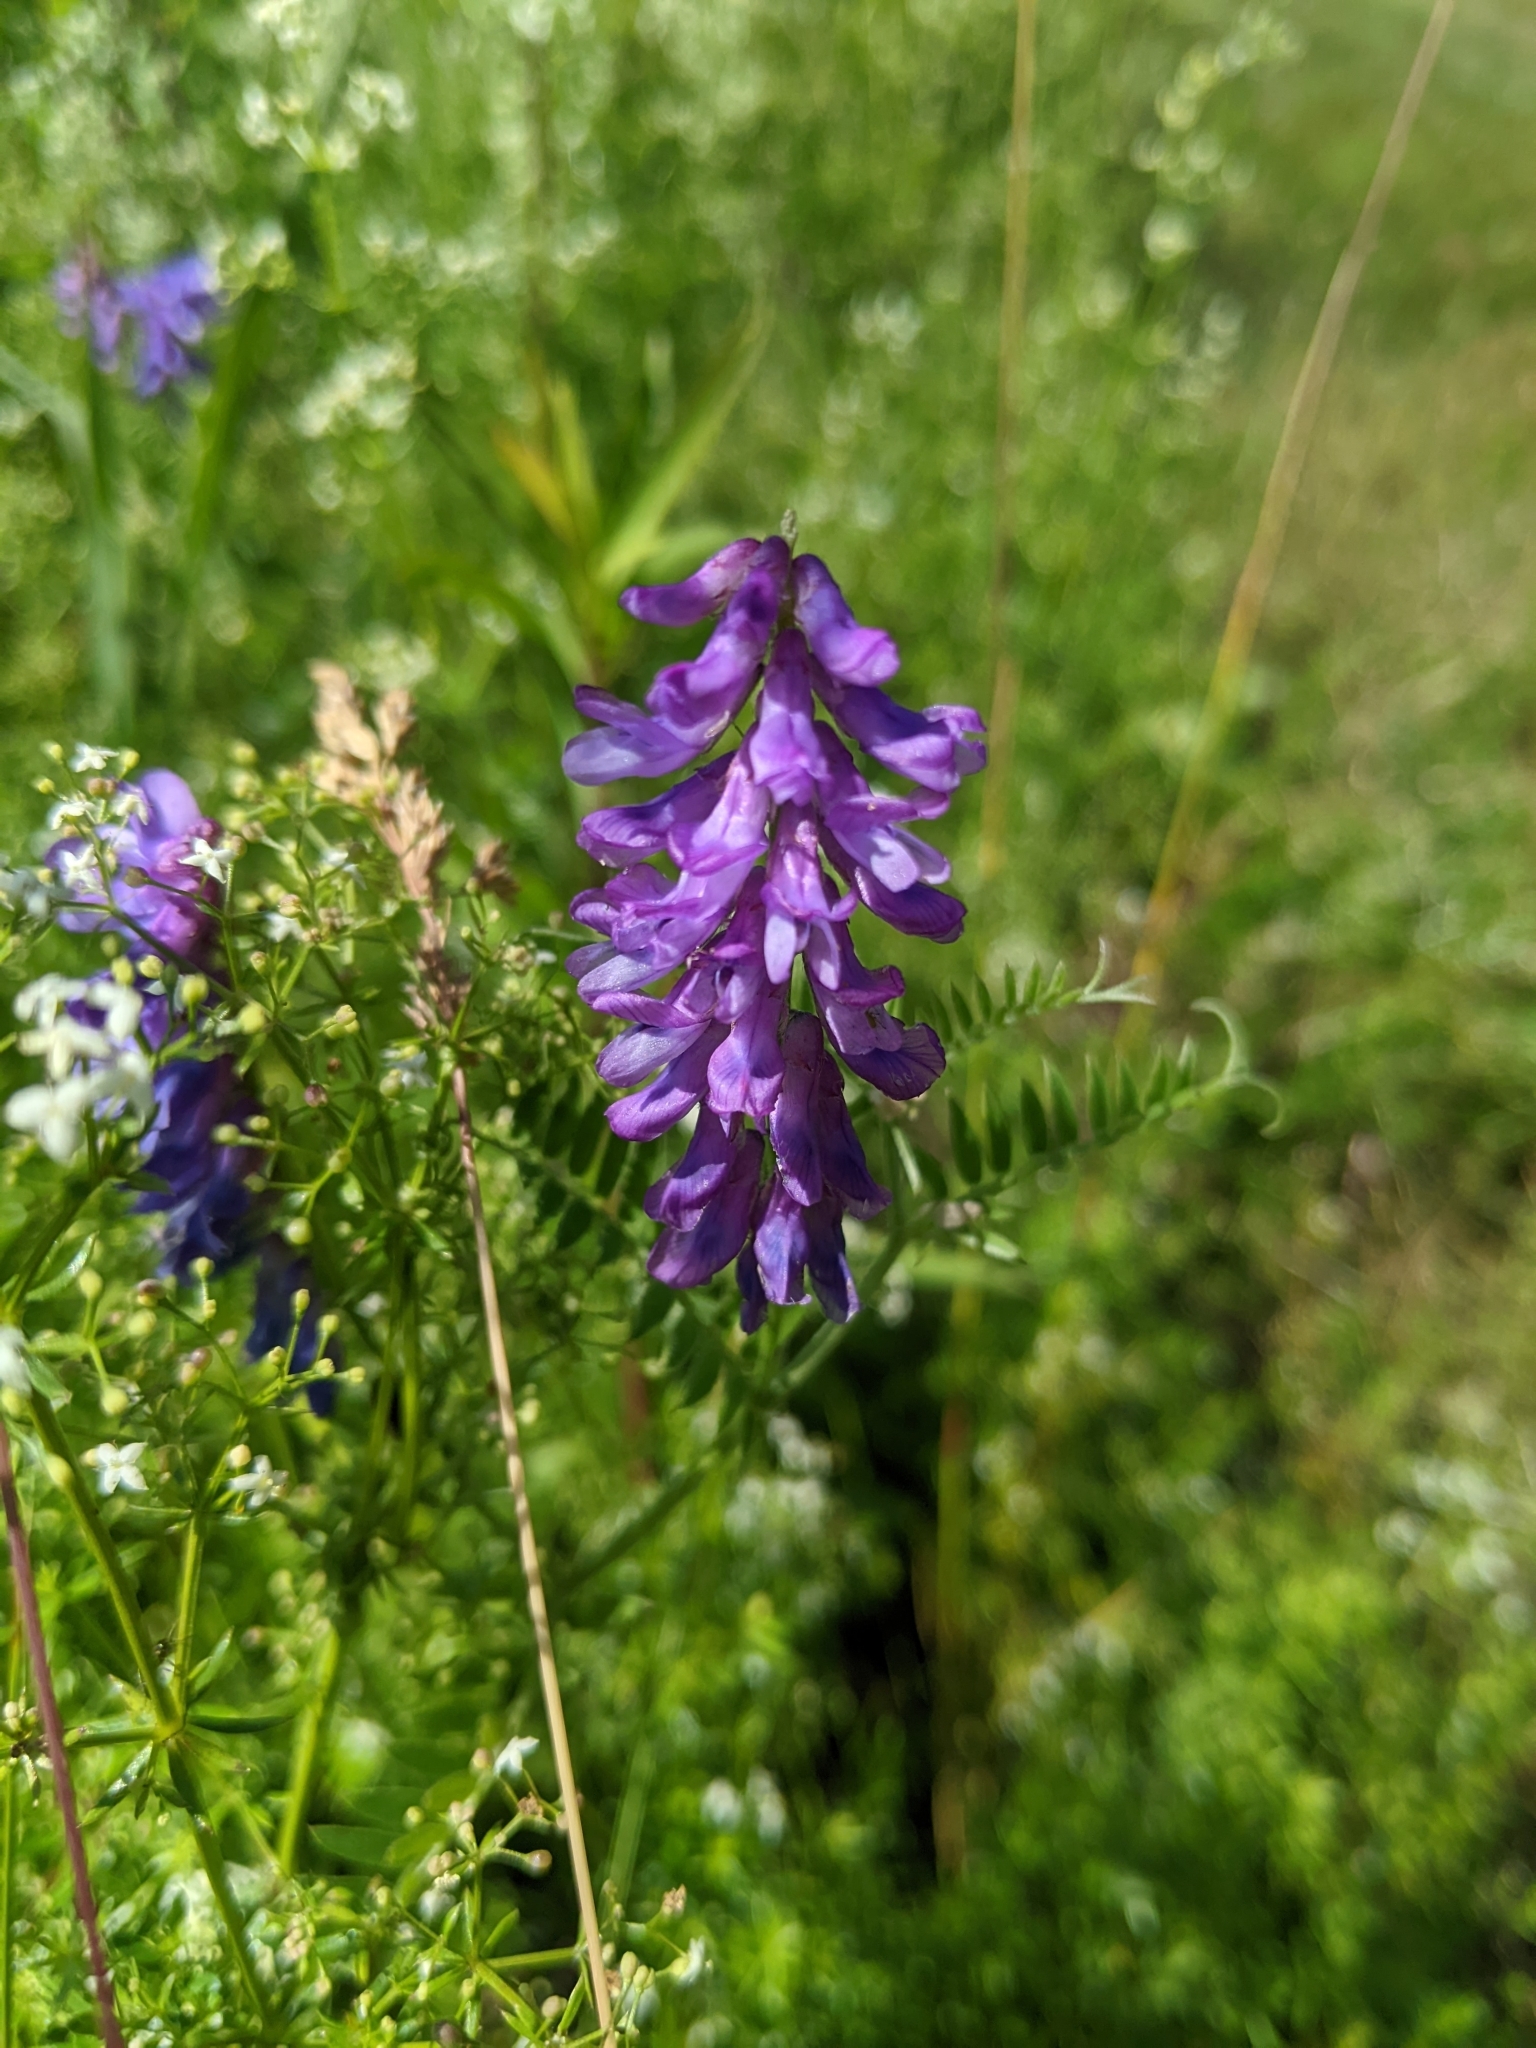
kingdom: Plantae
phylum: Tracheophyta
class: Magnoliopsida
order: Fabales
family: Fabaceae
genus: Vicia
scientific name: Vicia cracca
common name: Bird vetch
